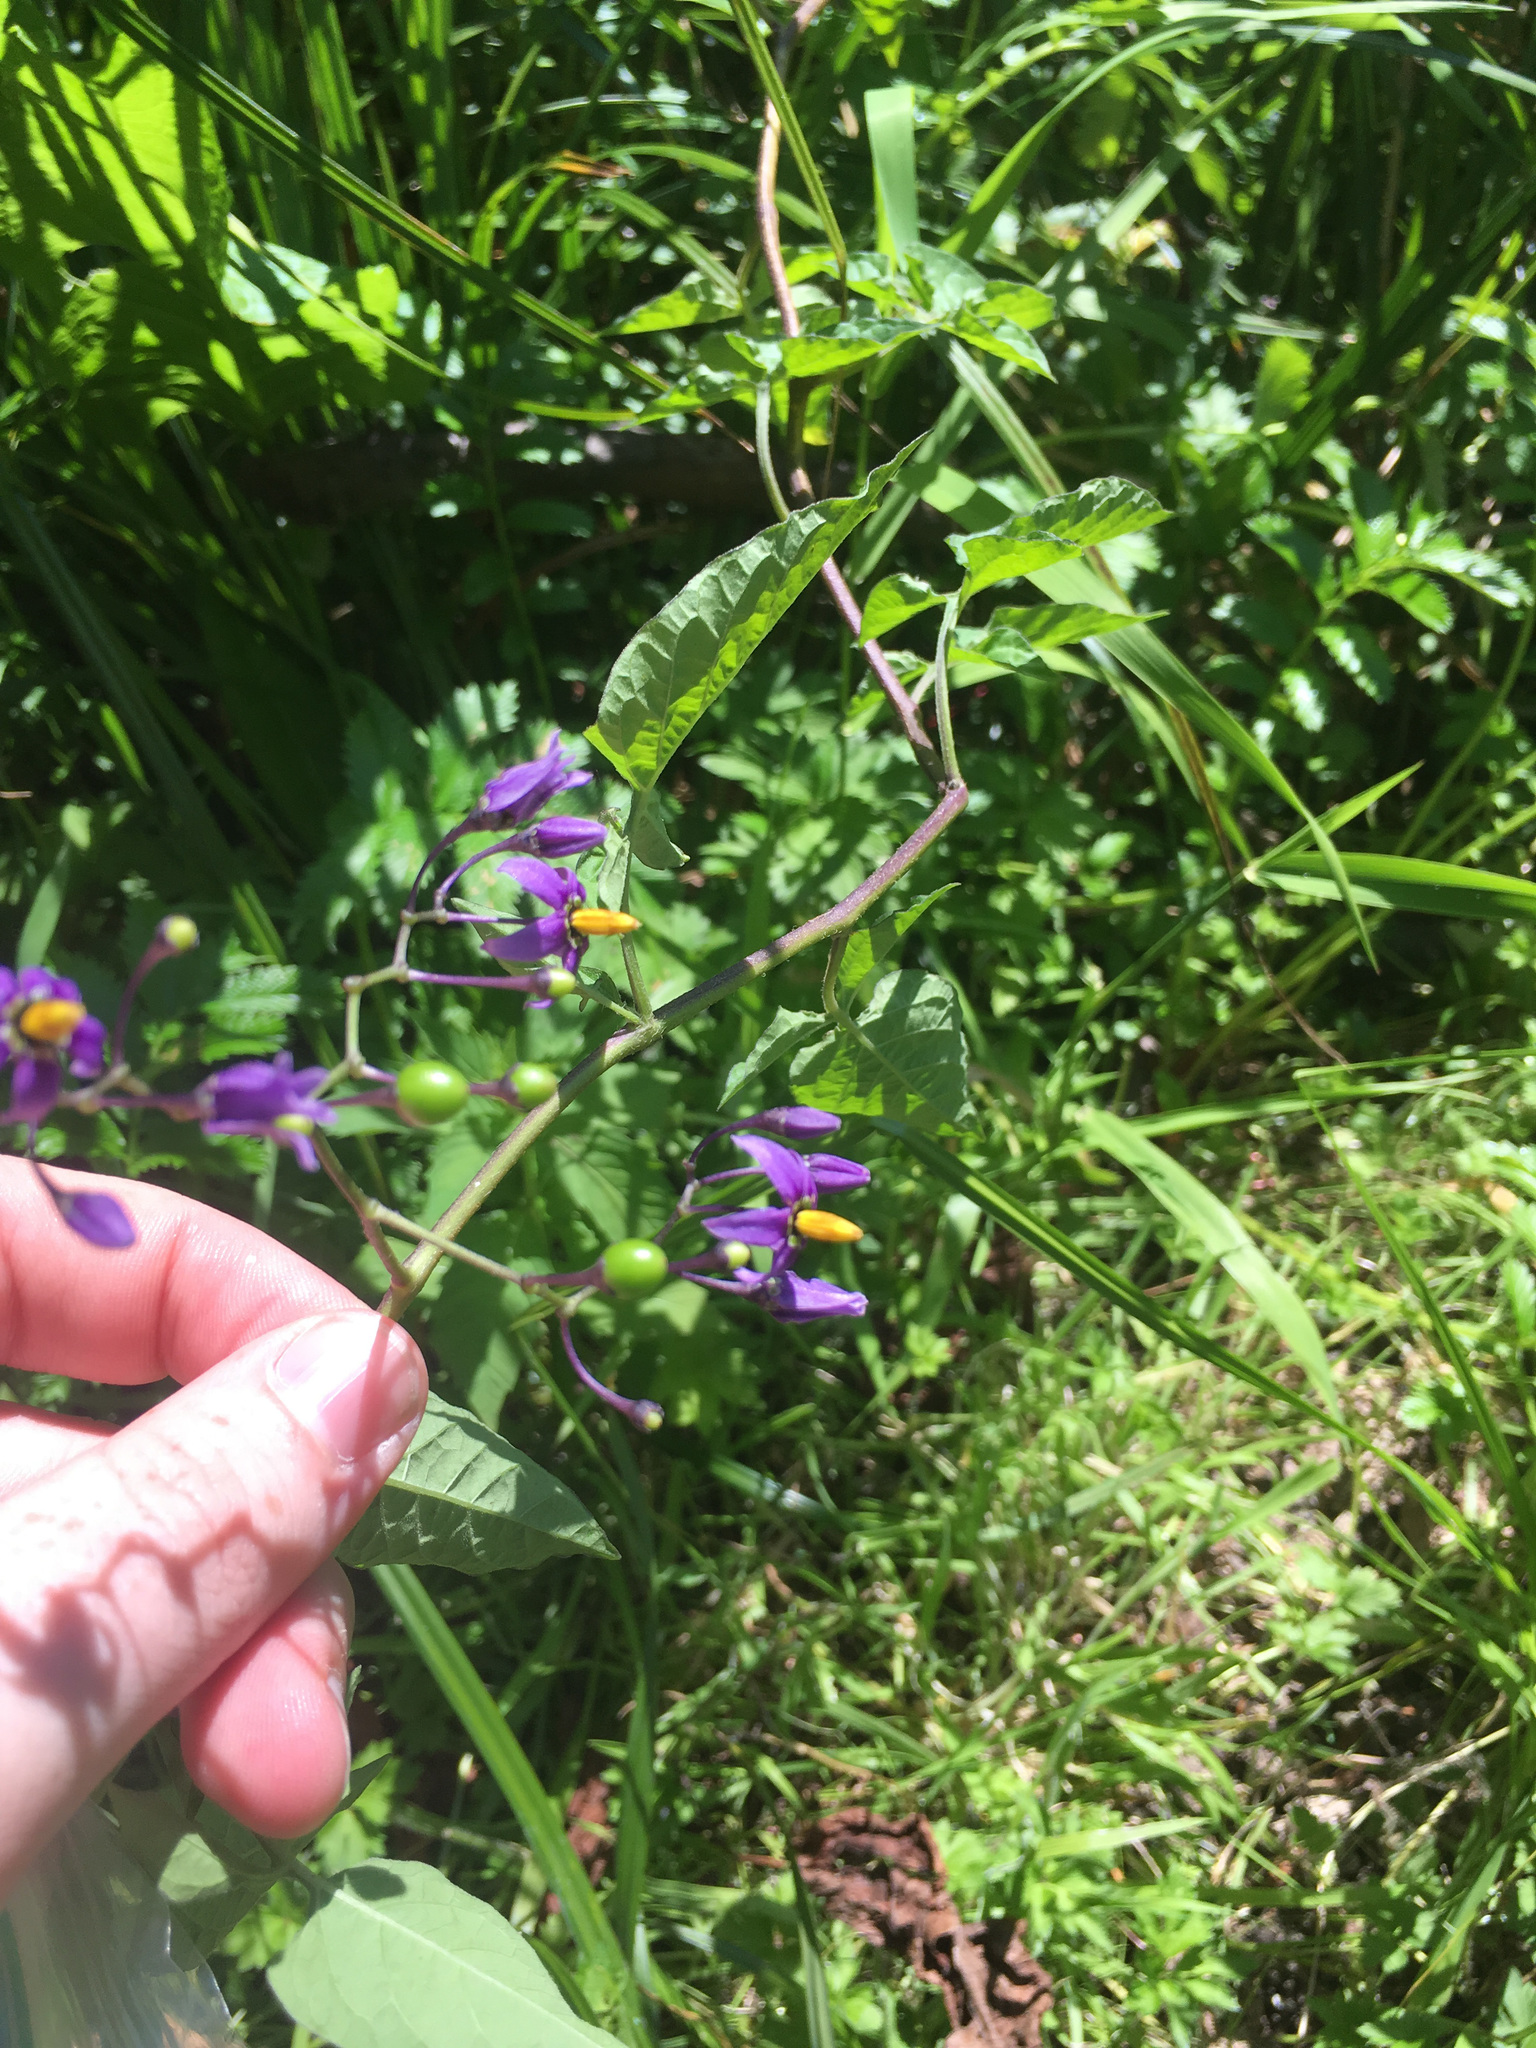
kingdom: Plantae
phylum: Tracheophyta
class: Magnoliopsida
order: Solanales
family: Solanaceae
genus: Solanum
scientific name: Solanum dulcamara
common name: Climbing nightshade
